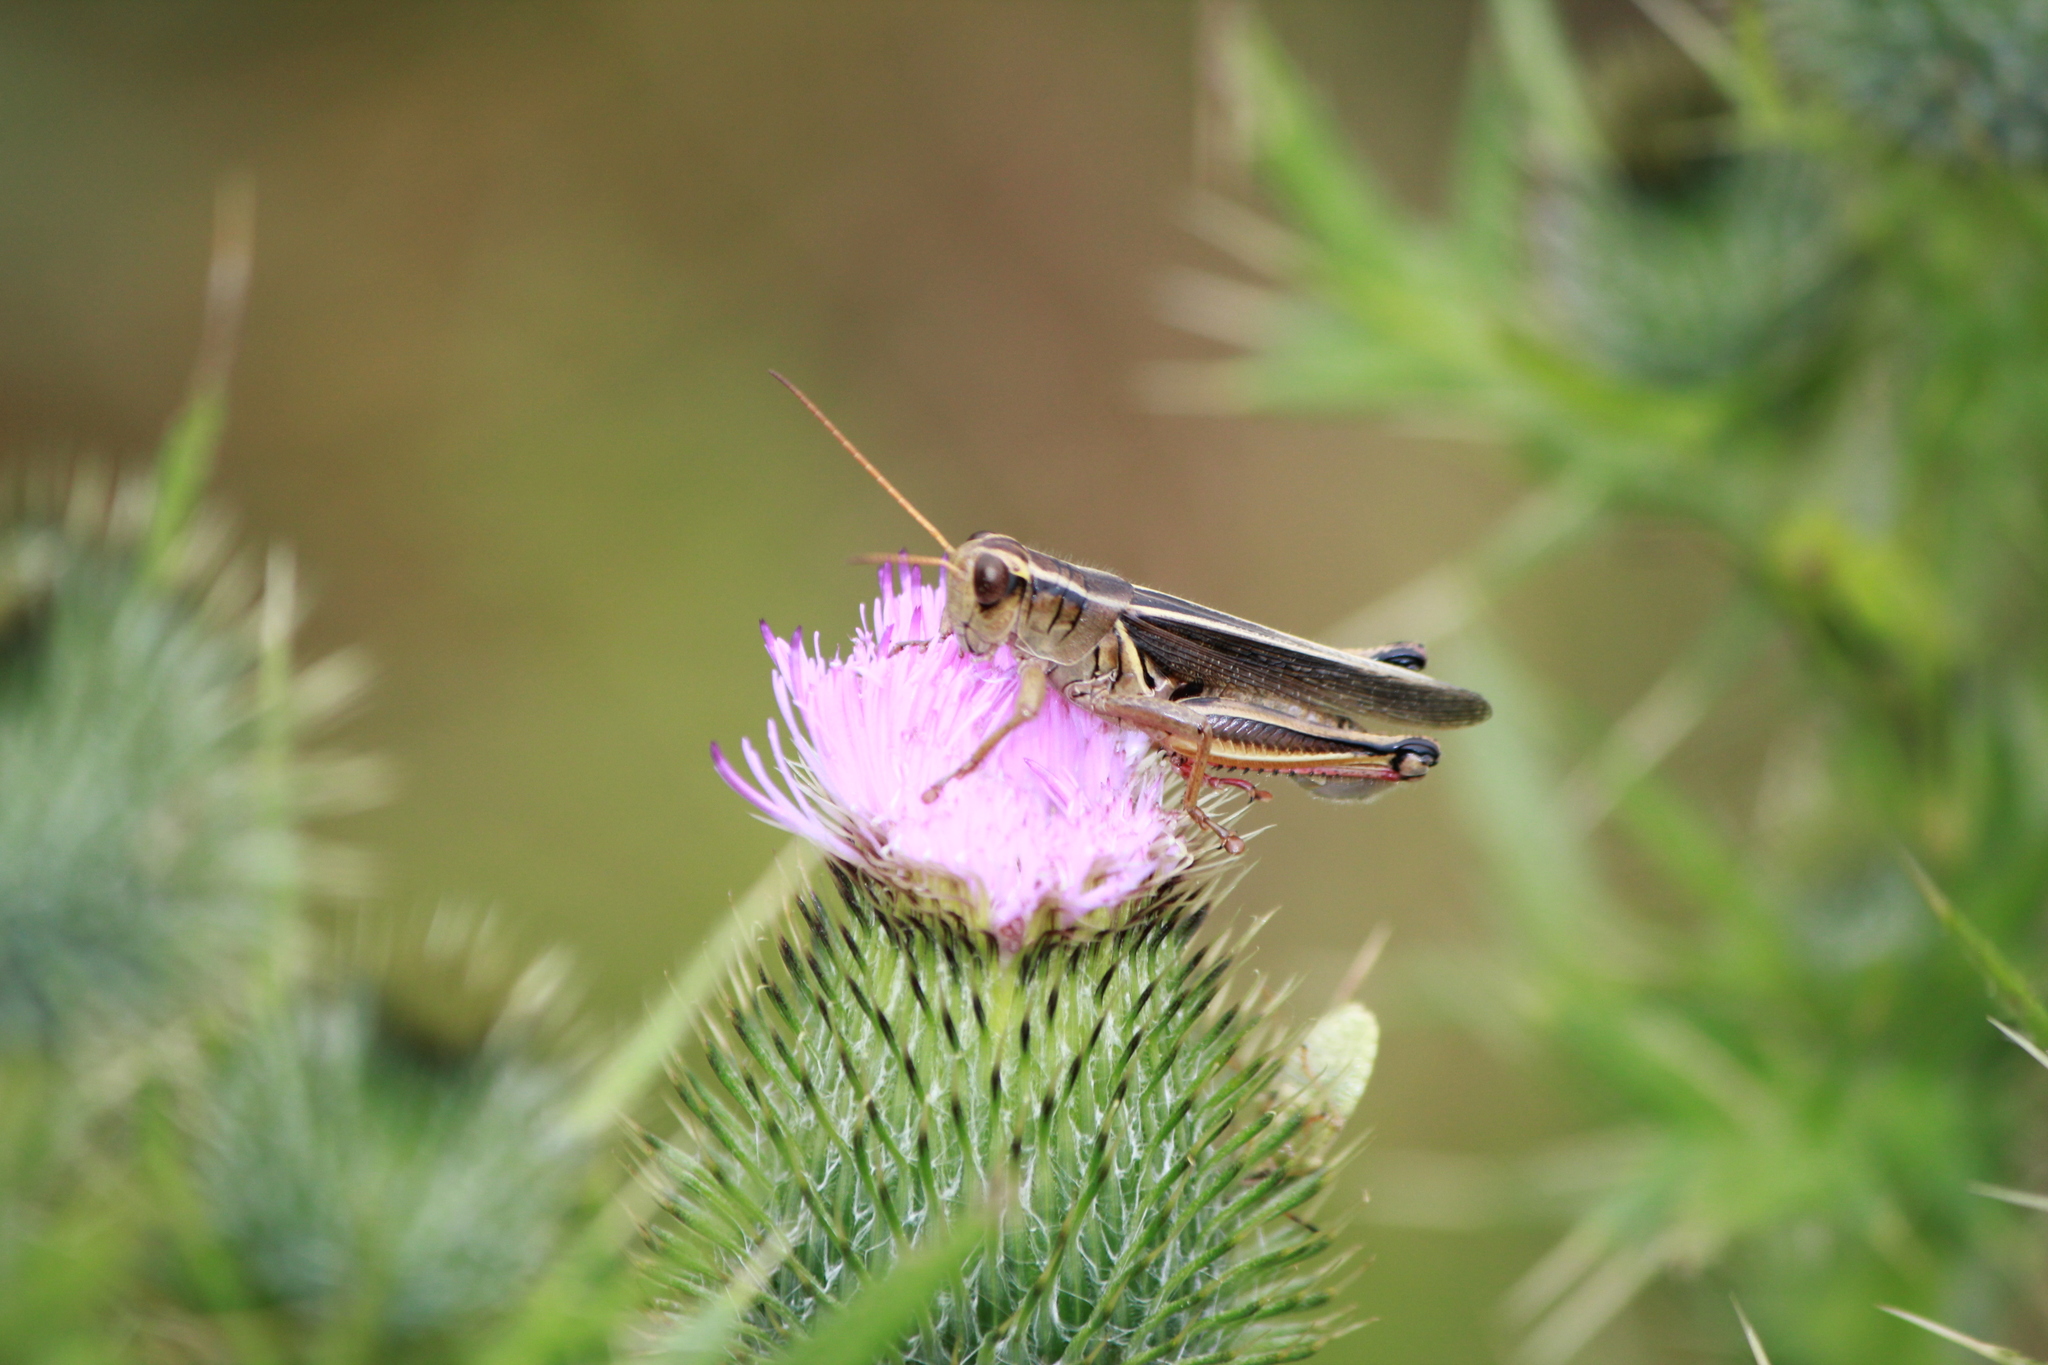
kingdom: Animalia
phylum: Arthropoda
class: Insecta
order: Orthoptera
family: Acrididae
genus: Melanoplus
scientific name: Melanoplus bivittatus
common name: Two-striped grasshopper
